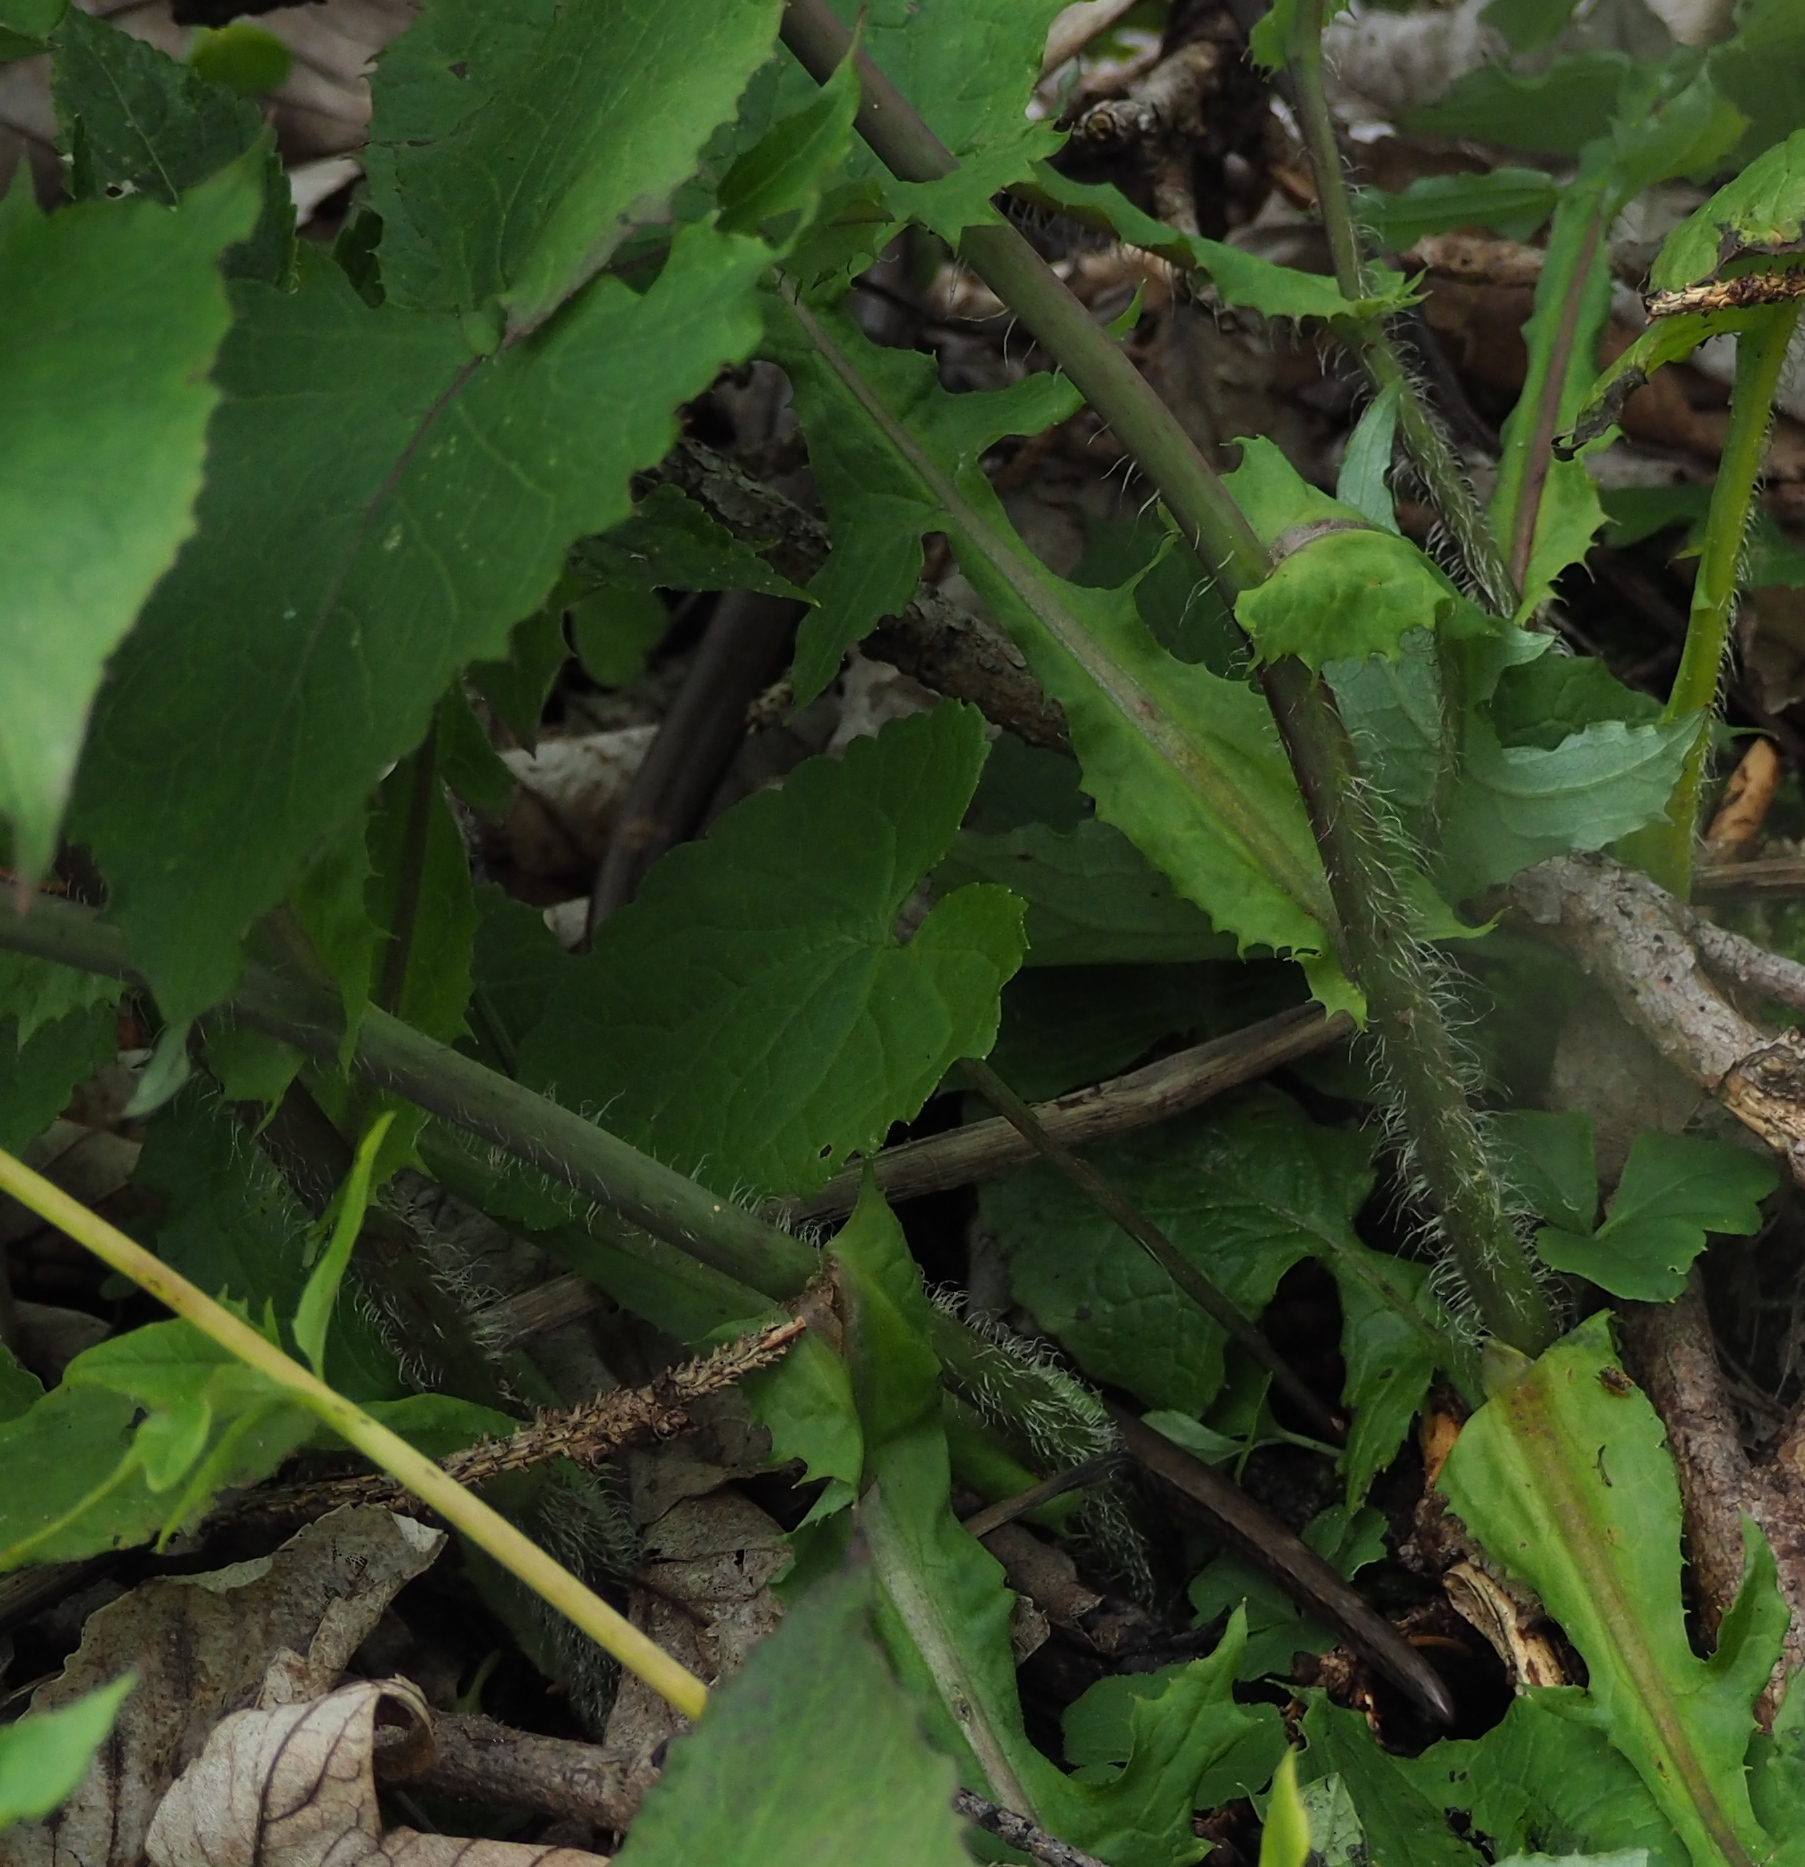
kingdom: Animalia
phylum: Chordata
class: Squamata
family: Anguidae
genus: Anguis
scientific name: Anguis fragilis
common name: Slow worm
